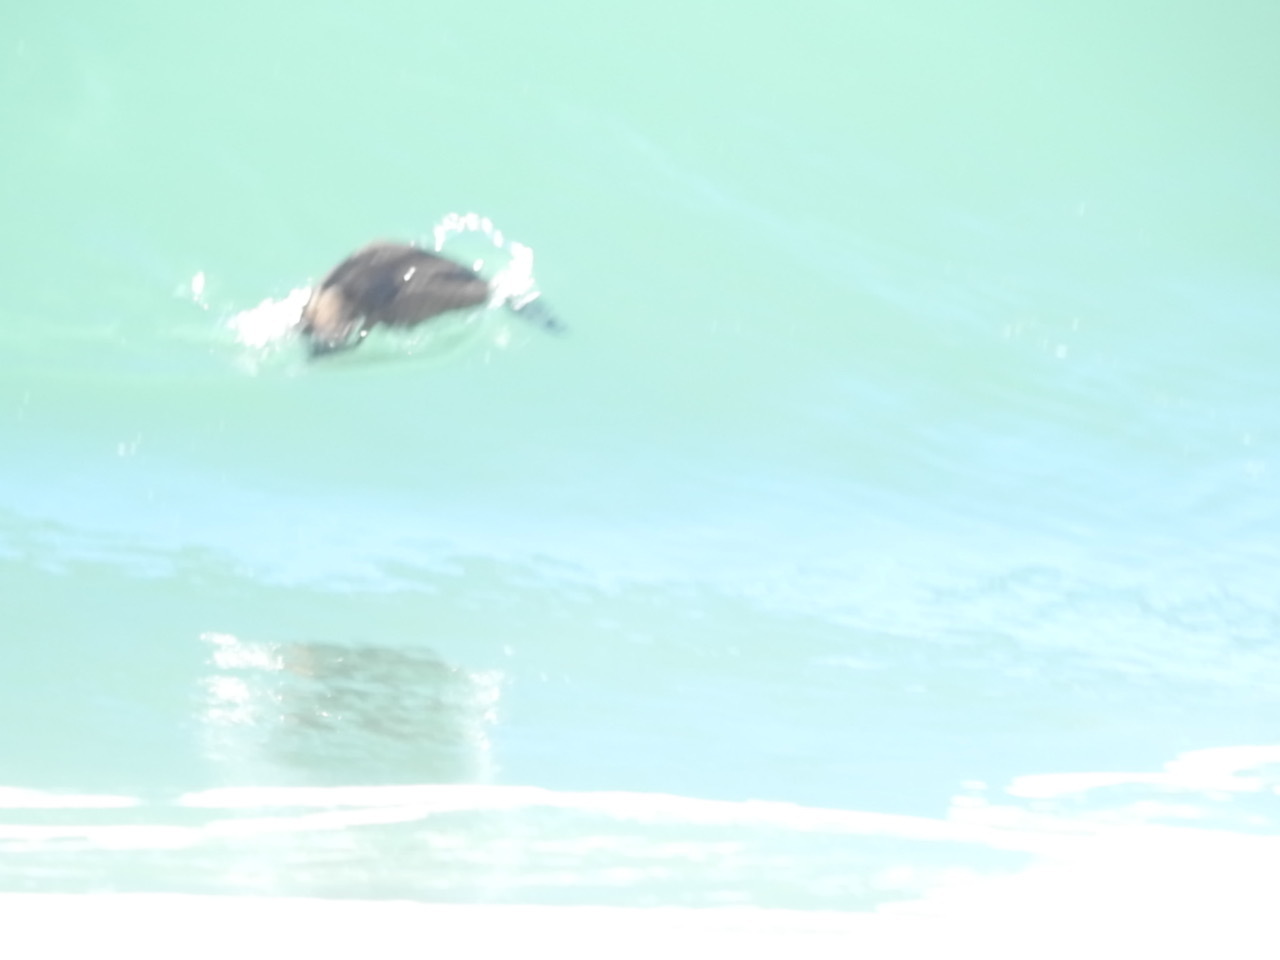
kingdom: Animalia
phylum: Chordata
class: Aves
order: Anseriformes
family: Anatidae
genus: Melanitta
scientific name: Melanitta perspicillata
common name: Surf scoter
